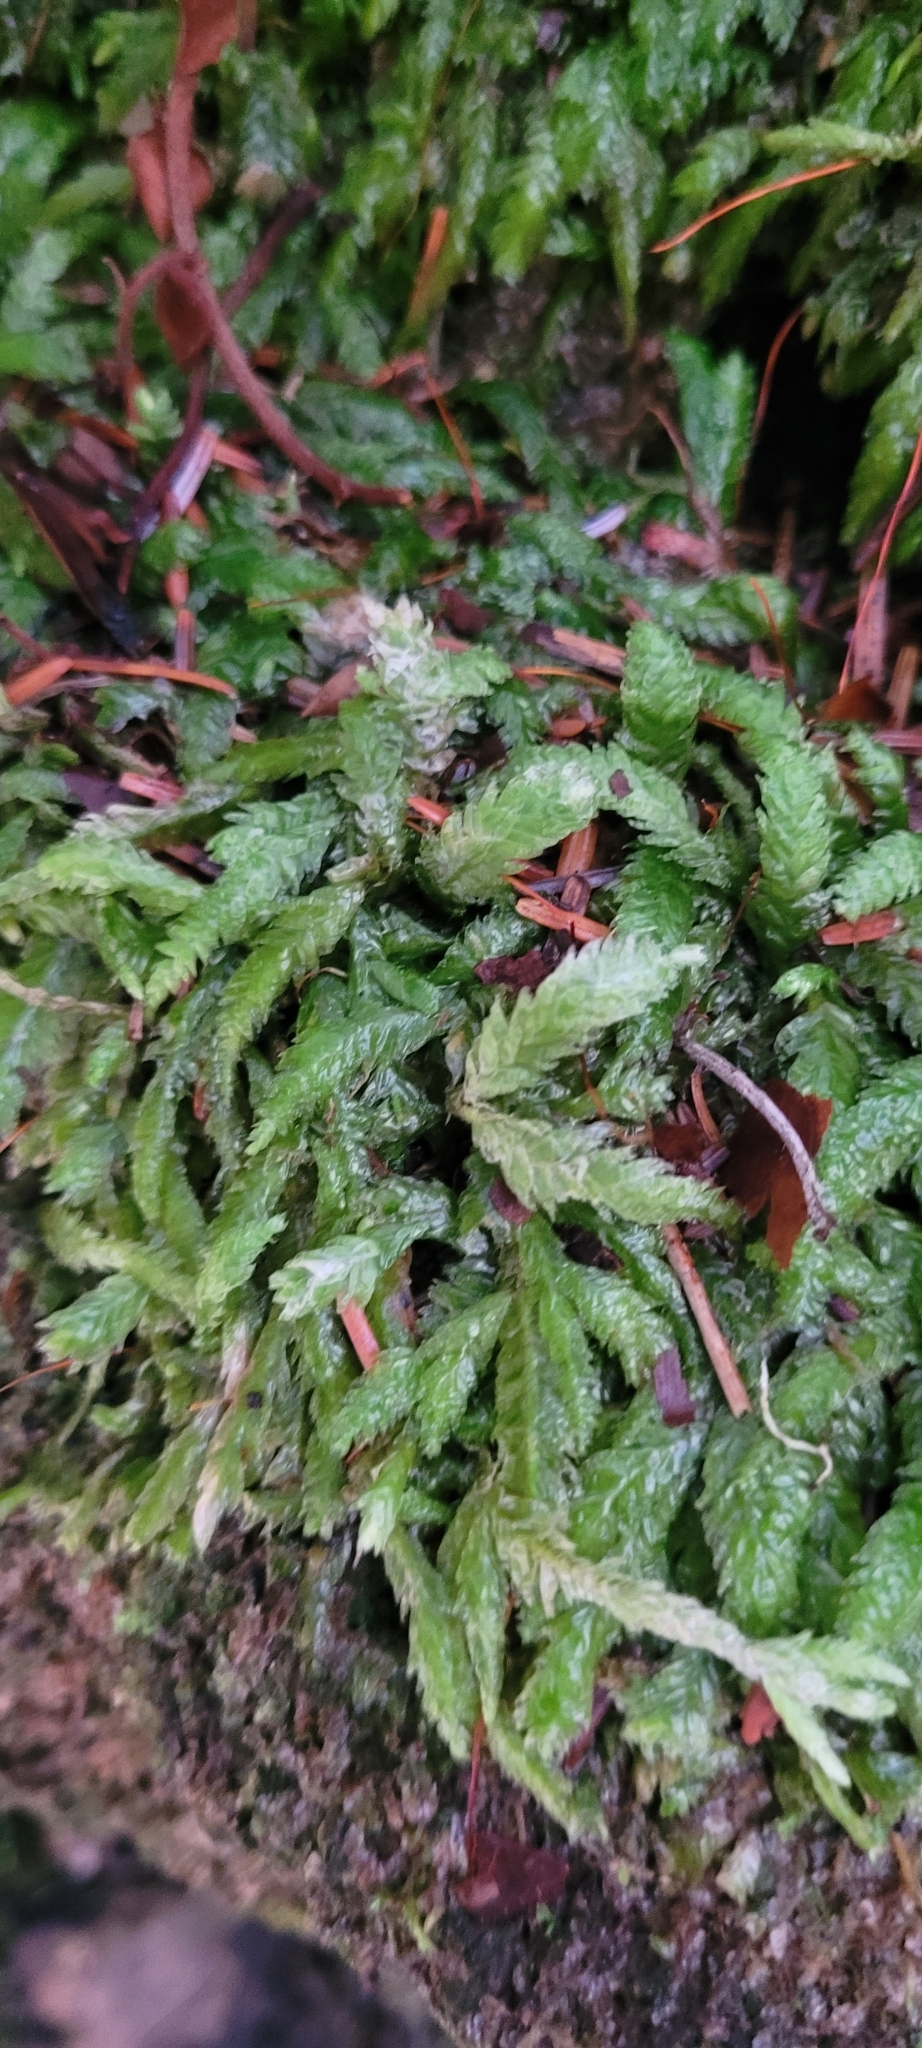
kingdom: Plantae
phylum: Bryophyta
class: Bryopsida
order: Hypnales
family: Plagiotheciaceae
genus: Plagiothecium
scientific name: Plagiothecium undulatum
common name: Waved silk-moss
